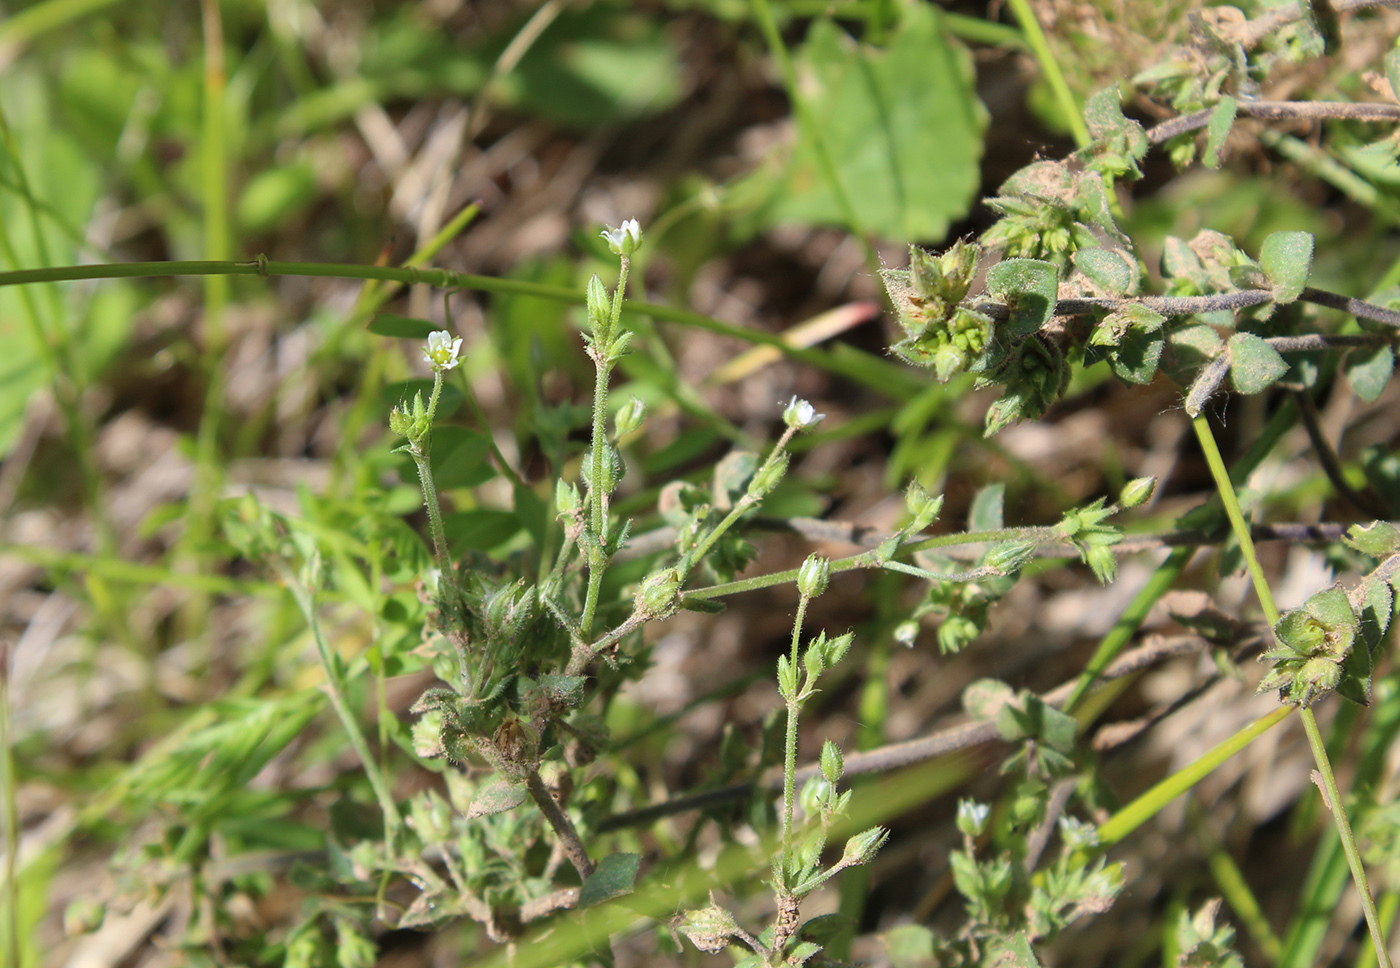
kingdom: Plantae
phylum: Tracheophyta
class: Magnoliopsida
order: Caryophyllales
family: Caryophyllaceae
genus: Arenaria
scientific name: Arenaria serpyllifolia
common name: Thyme-leaved sandwort
